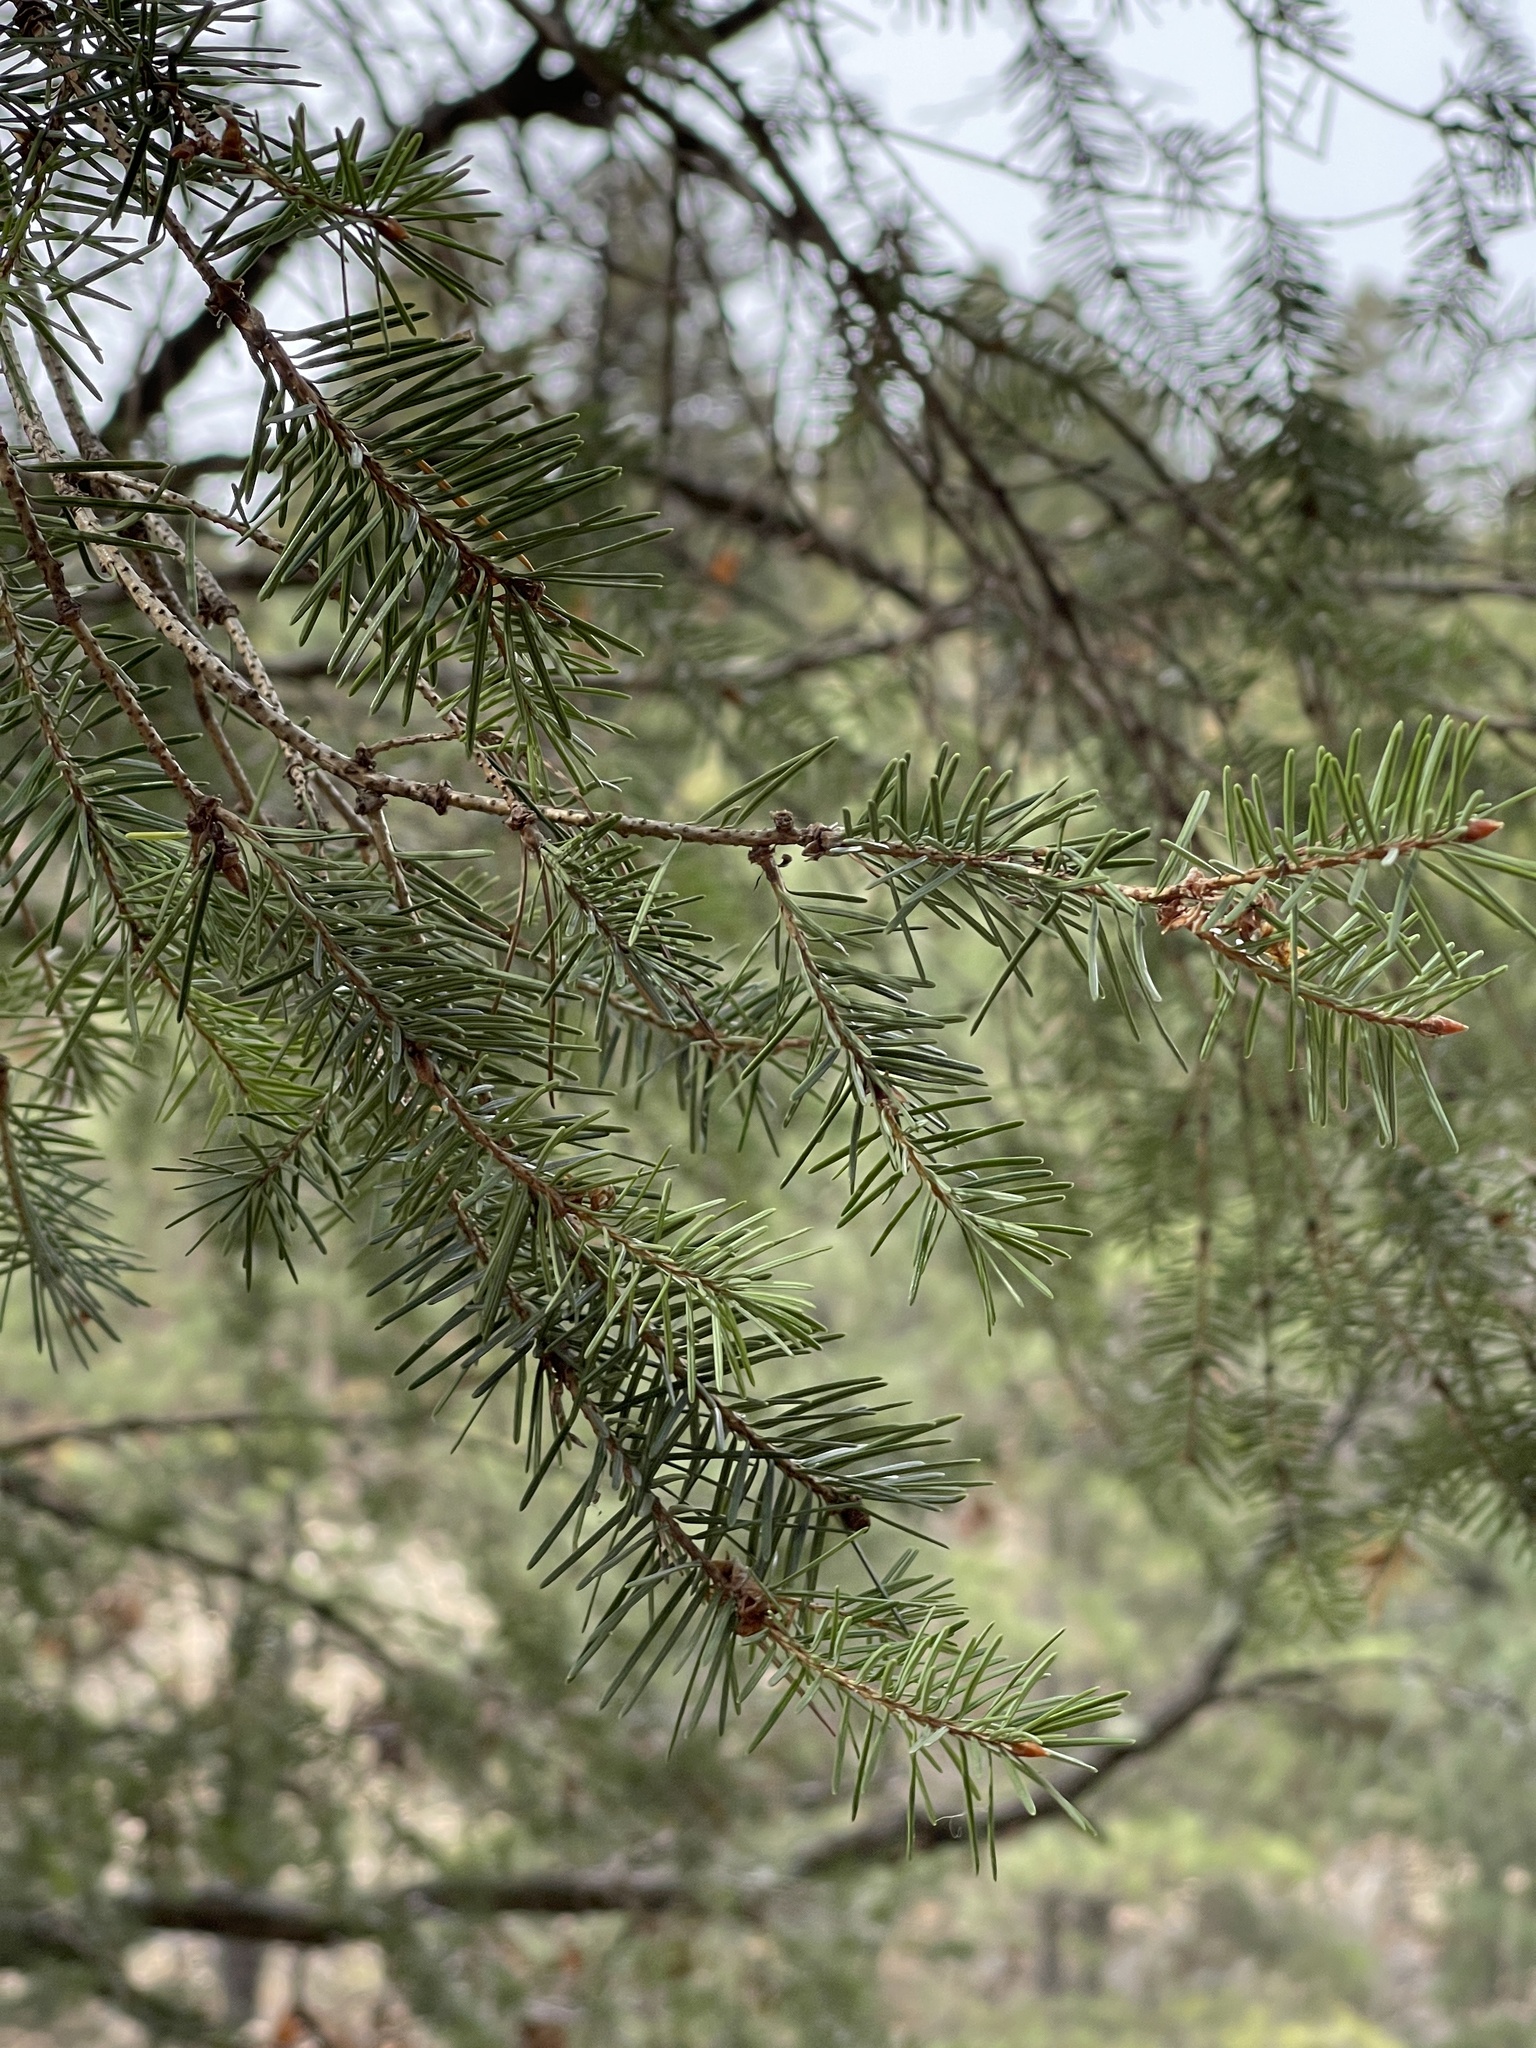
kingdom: Plantae
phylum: Tracheophyta
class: Pinopsida
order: Pinales
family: Pinaceae
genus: Pseudotsuga
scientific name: Pseudotsuga menziesii
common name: Douglas fir
